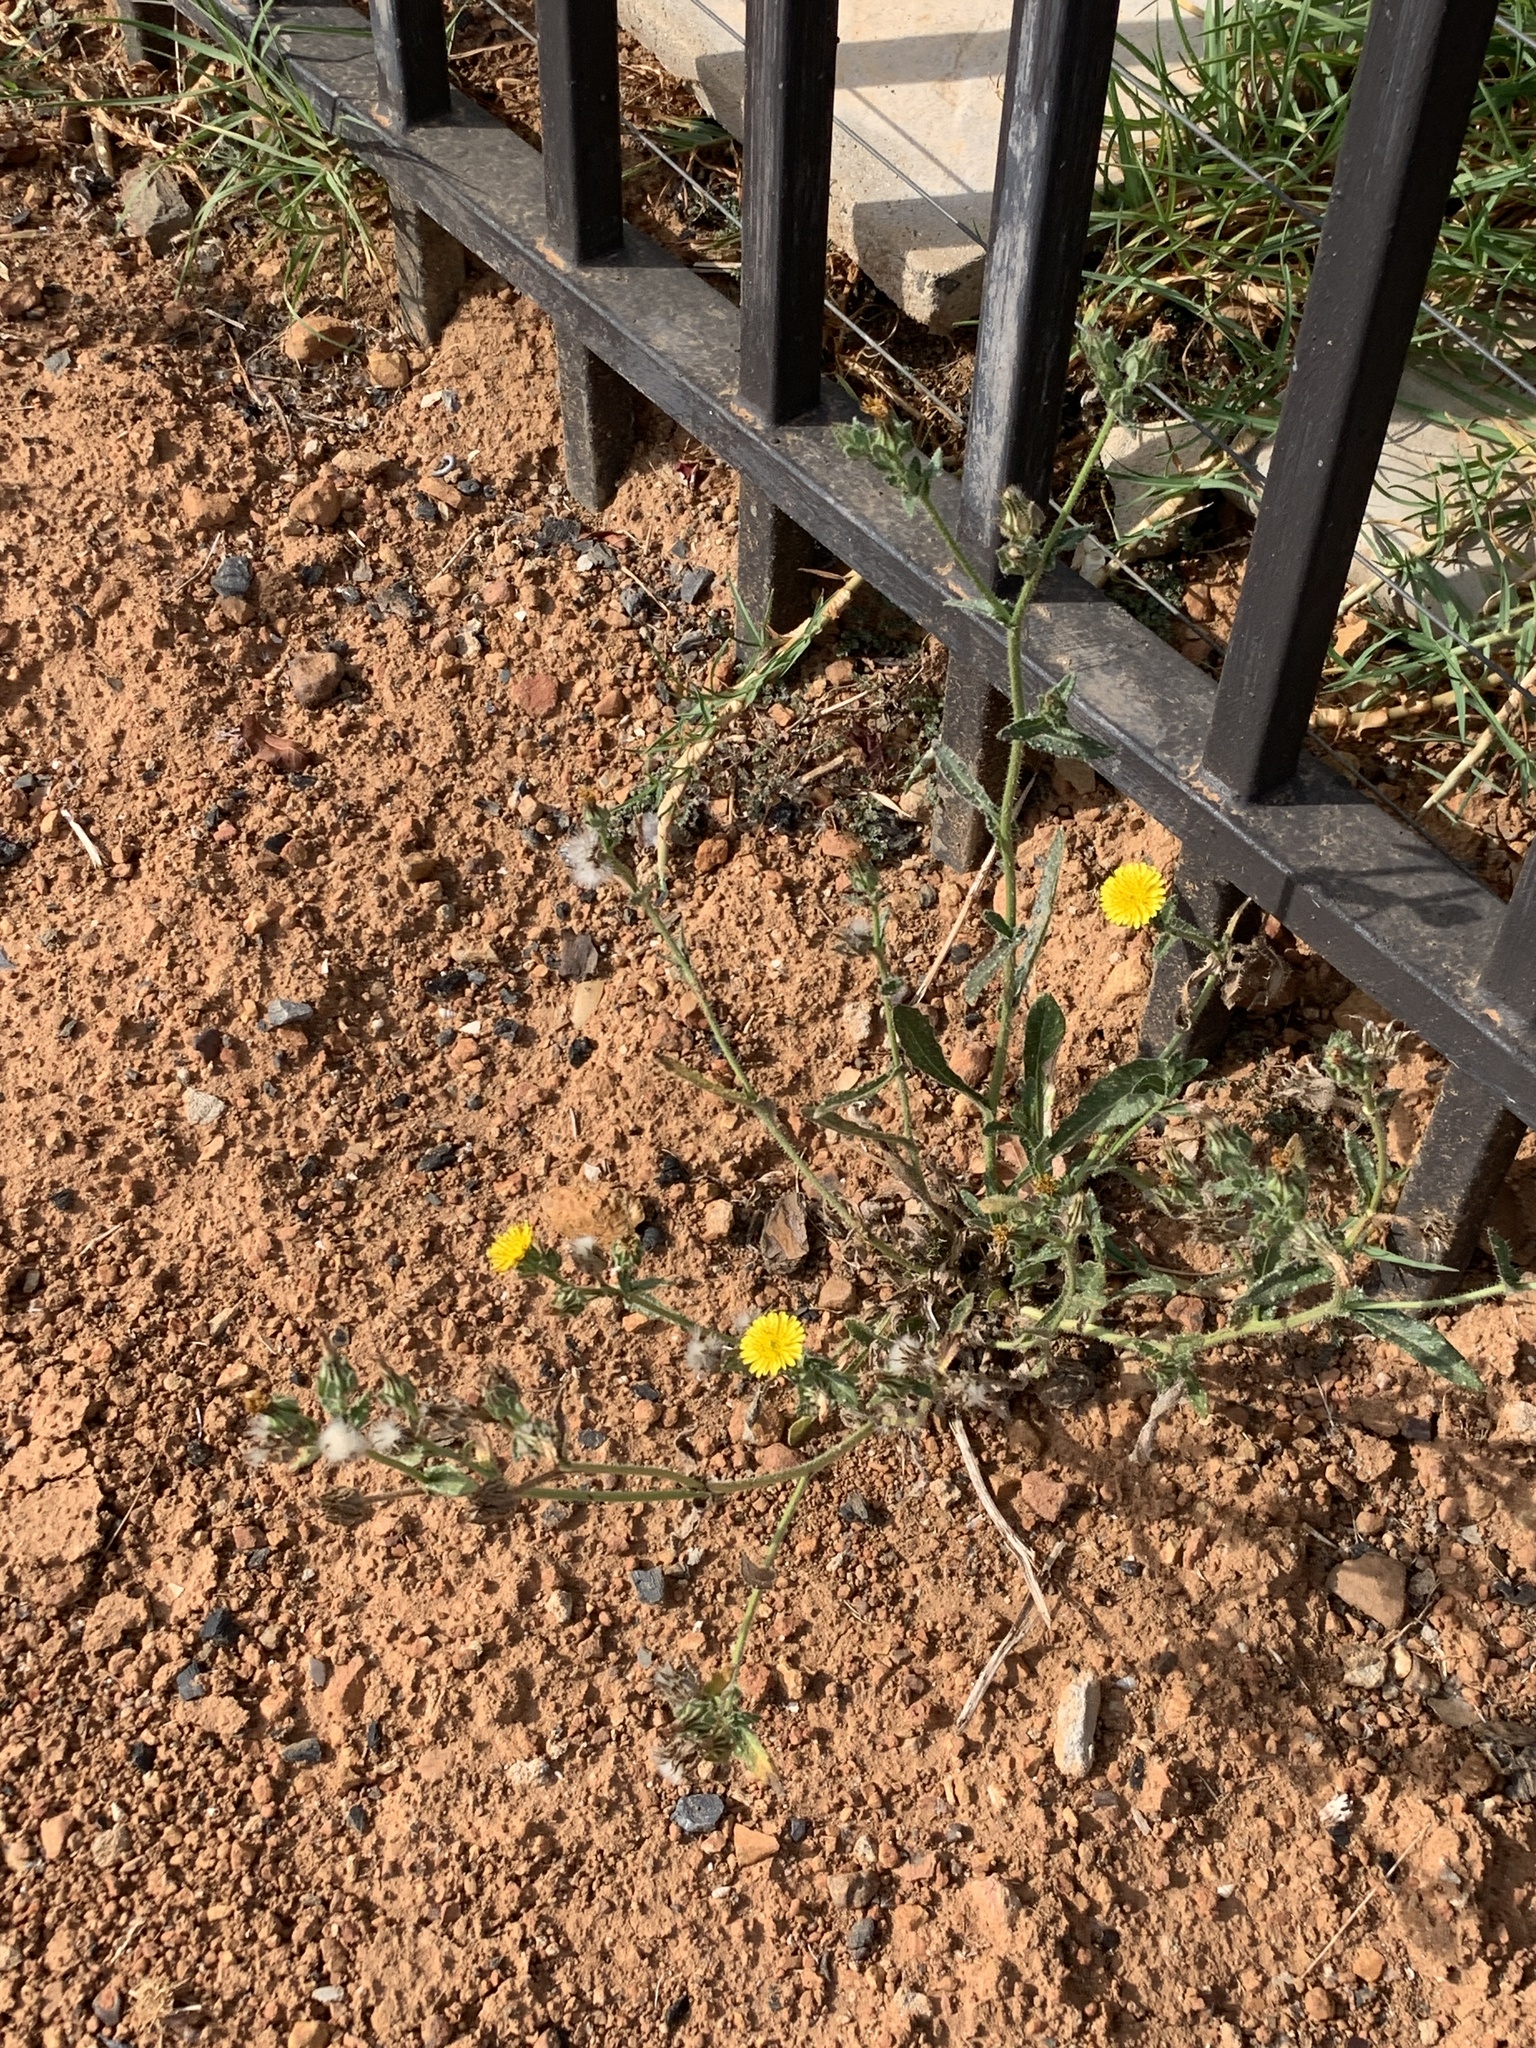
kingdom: Plantae
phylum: Tracheophyta
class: Magnoliopsida
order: Asterales
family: Asteraceae
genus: Helminthotheca
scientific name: Helminthotheca echioides
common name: Ox-tongue
